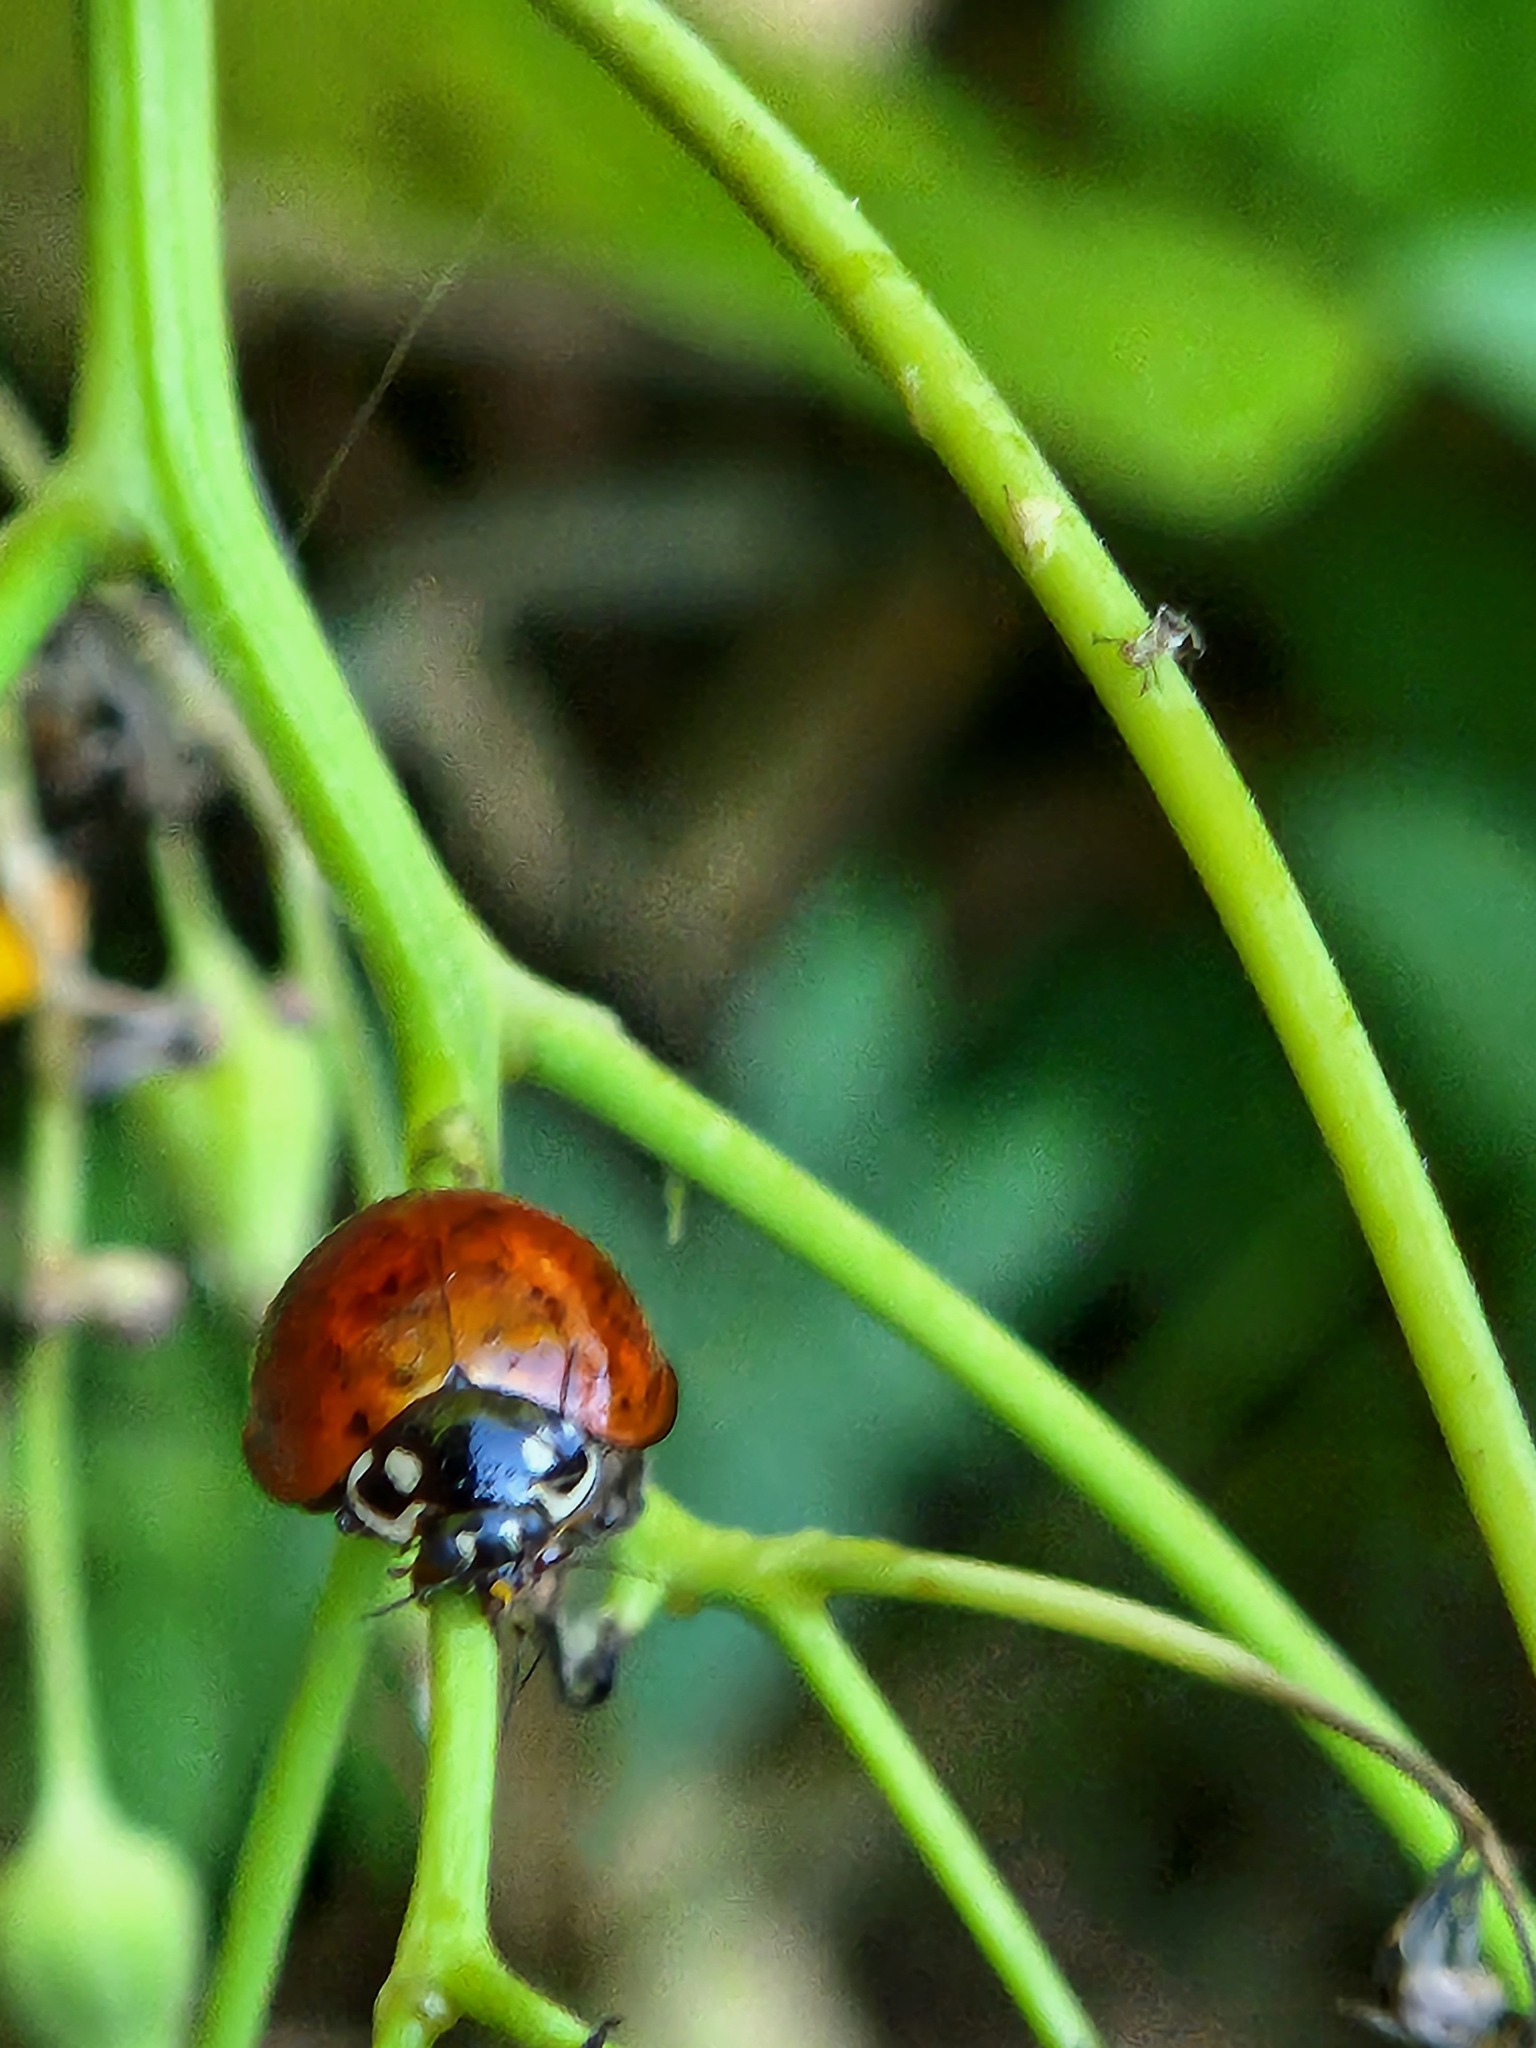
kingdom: Animalia
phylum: Arthropoda
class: Insecta
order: Coleoptera
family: Coccinellidae
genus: Cycloneda
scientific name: Cycloneda sanguinea
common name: Ladybird beetle
